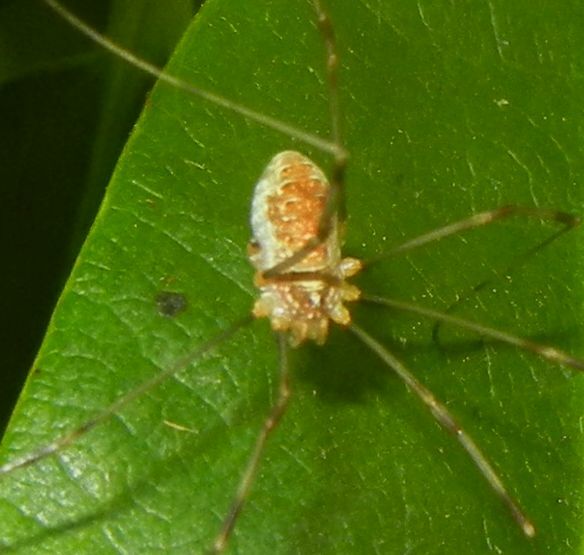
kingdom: Animalia
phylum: Arthropoda
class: Arachnida
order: Opiliones
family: Phalangiidae
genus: Opilio
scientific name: Opilio canestrinii
